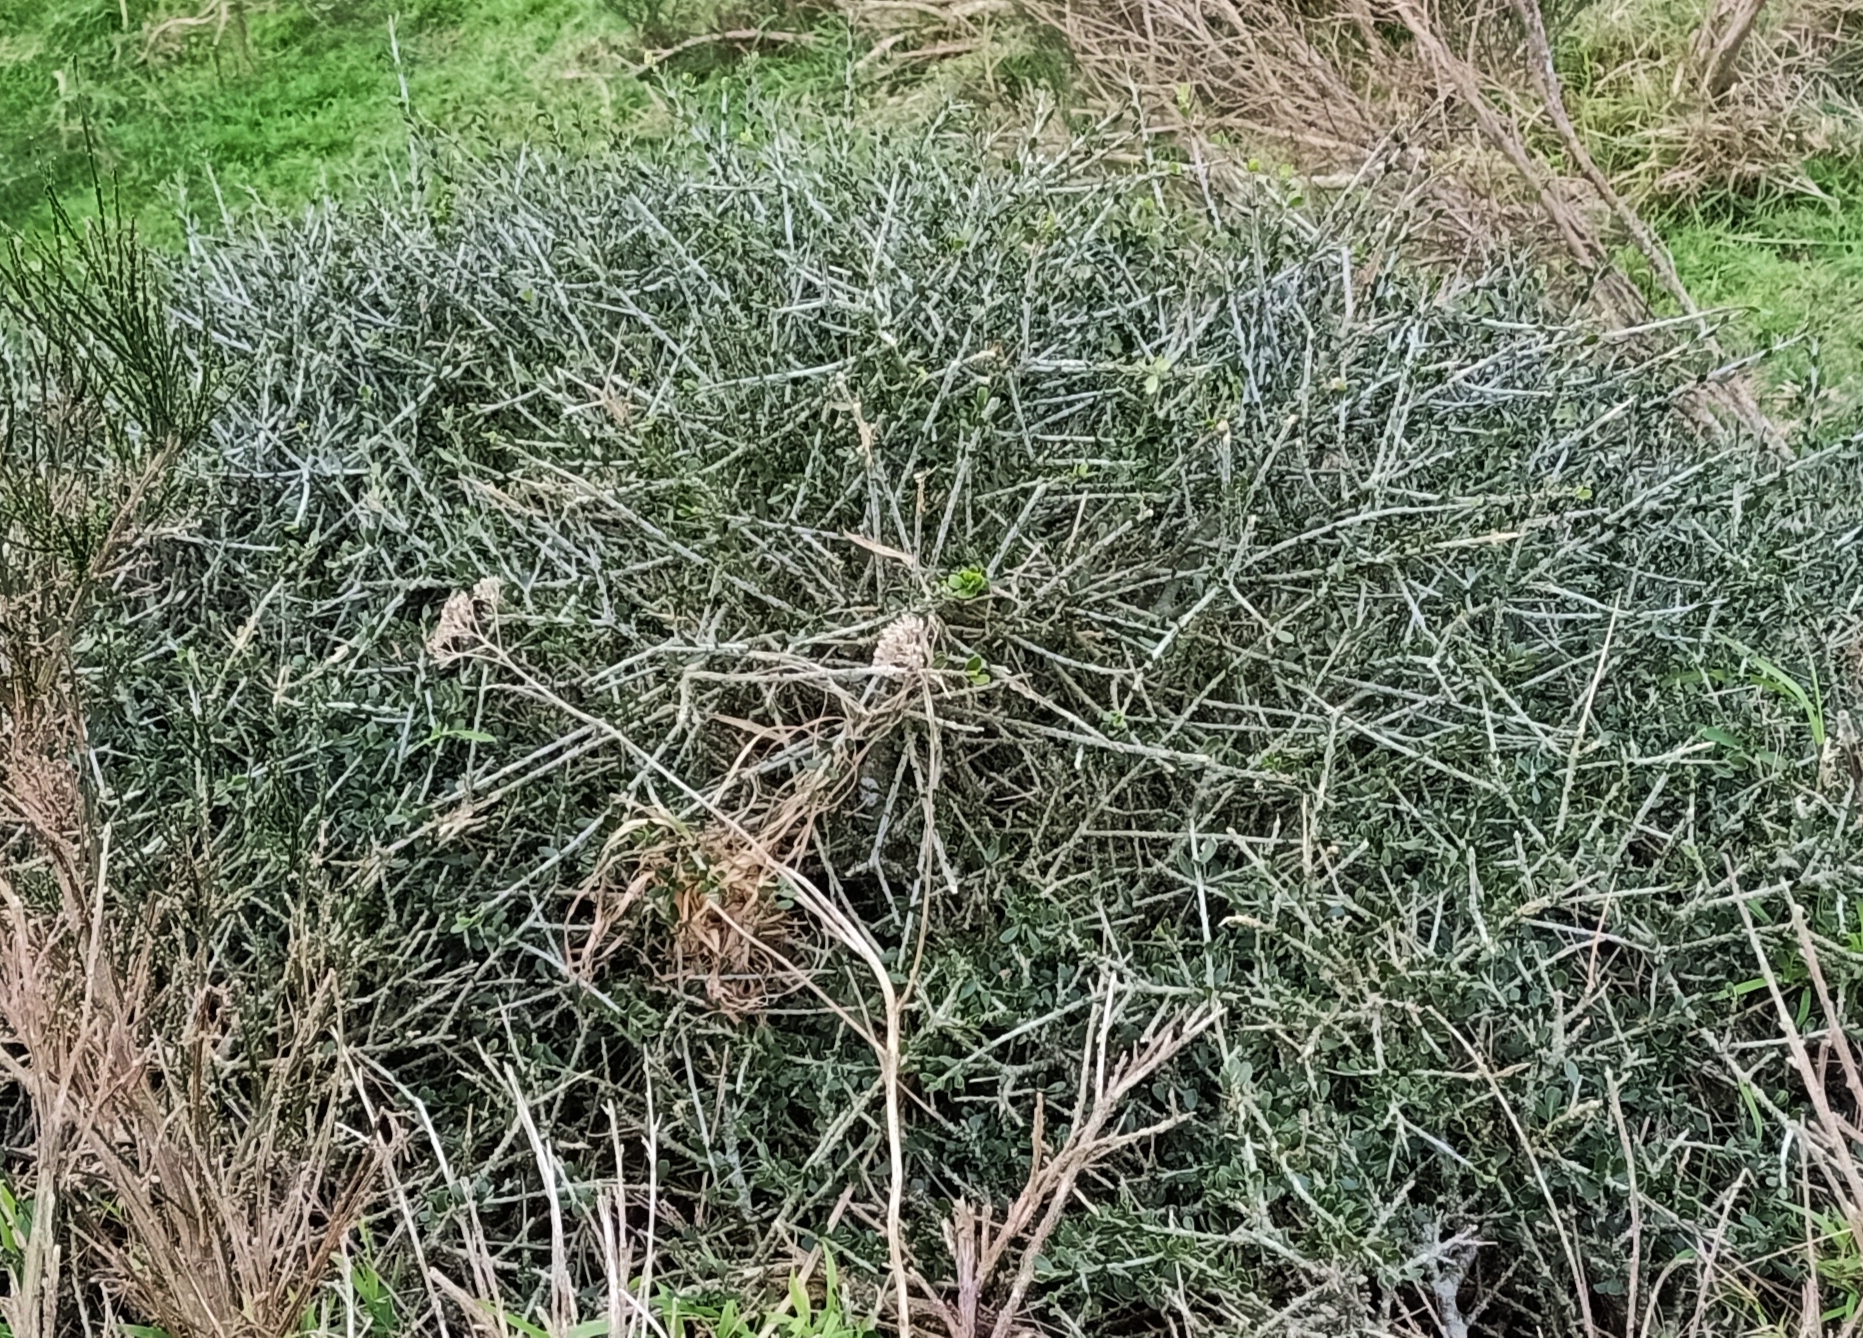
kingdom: Plantae
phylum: Tracheophyta
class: Magnoliopsida
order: Malpighiales
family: Violaceae
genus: Melicytus
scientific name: Melicytus crassifolius
